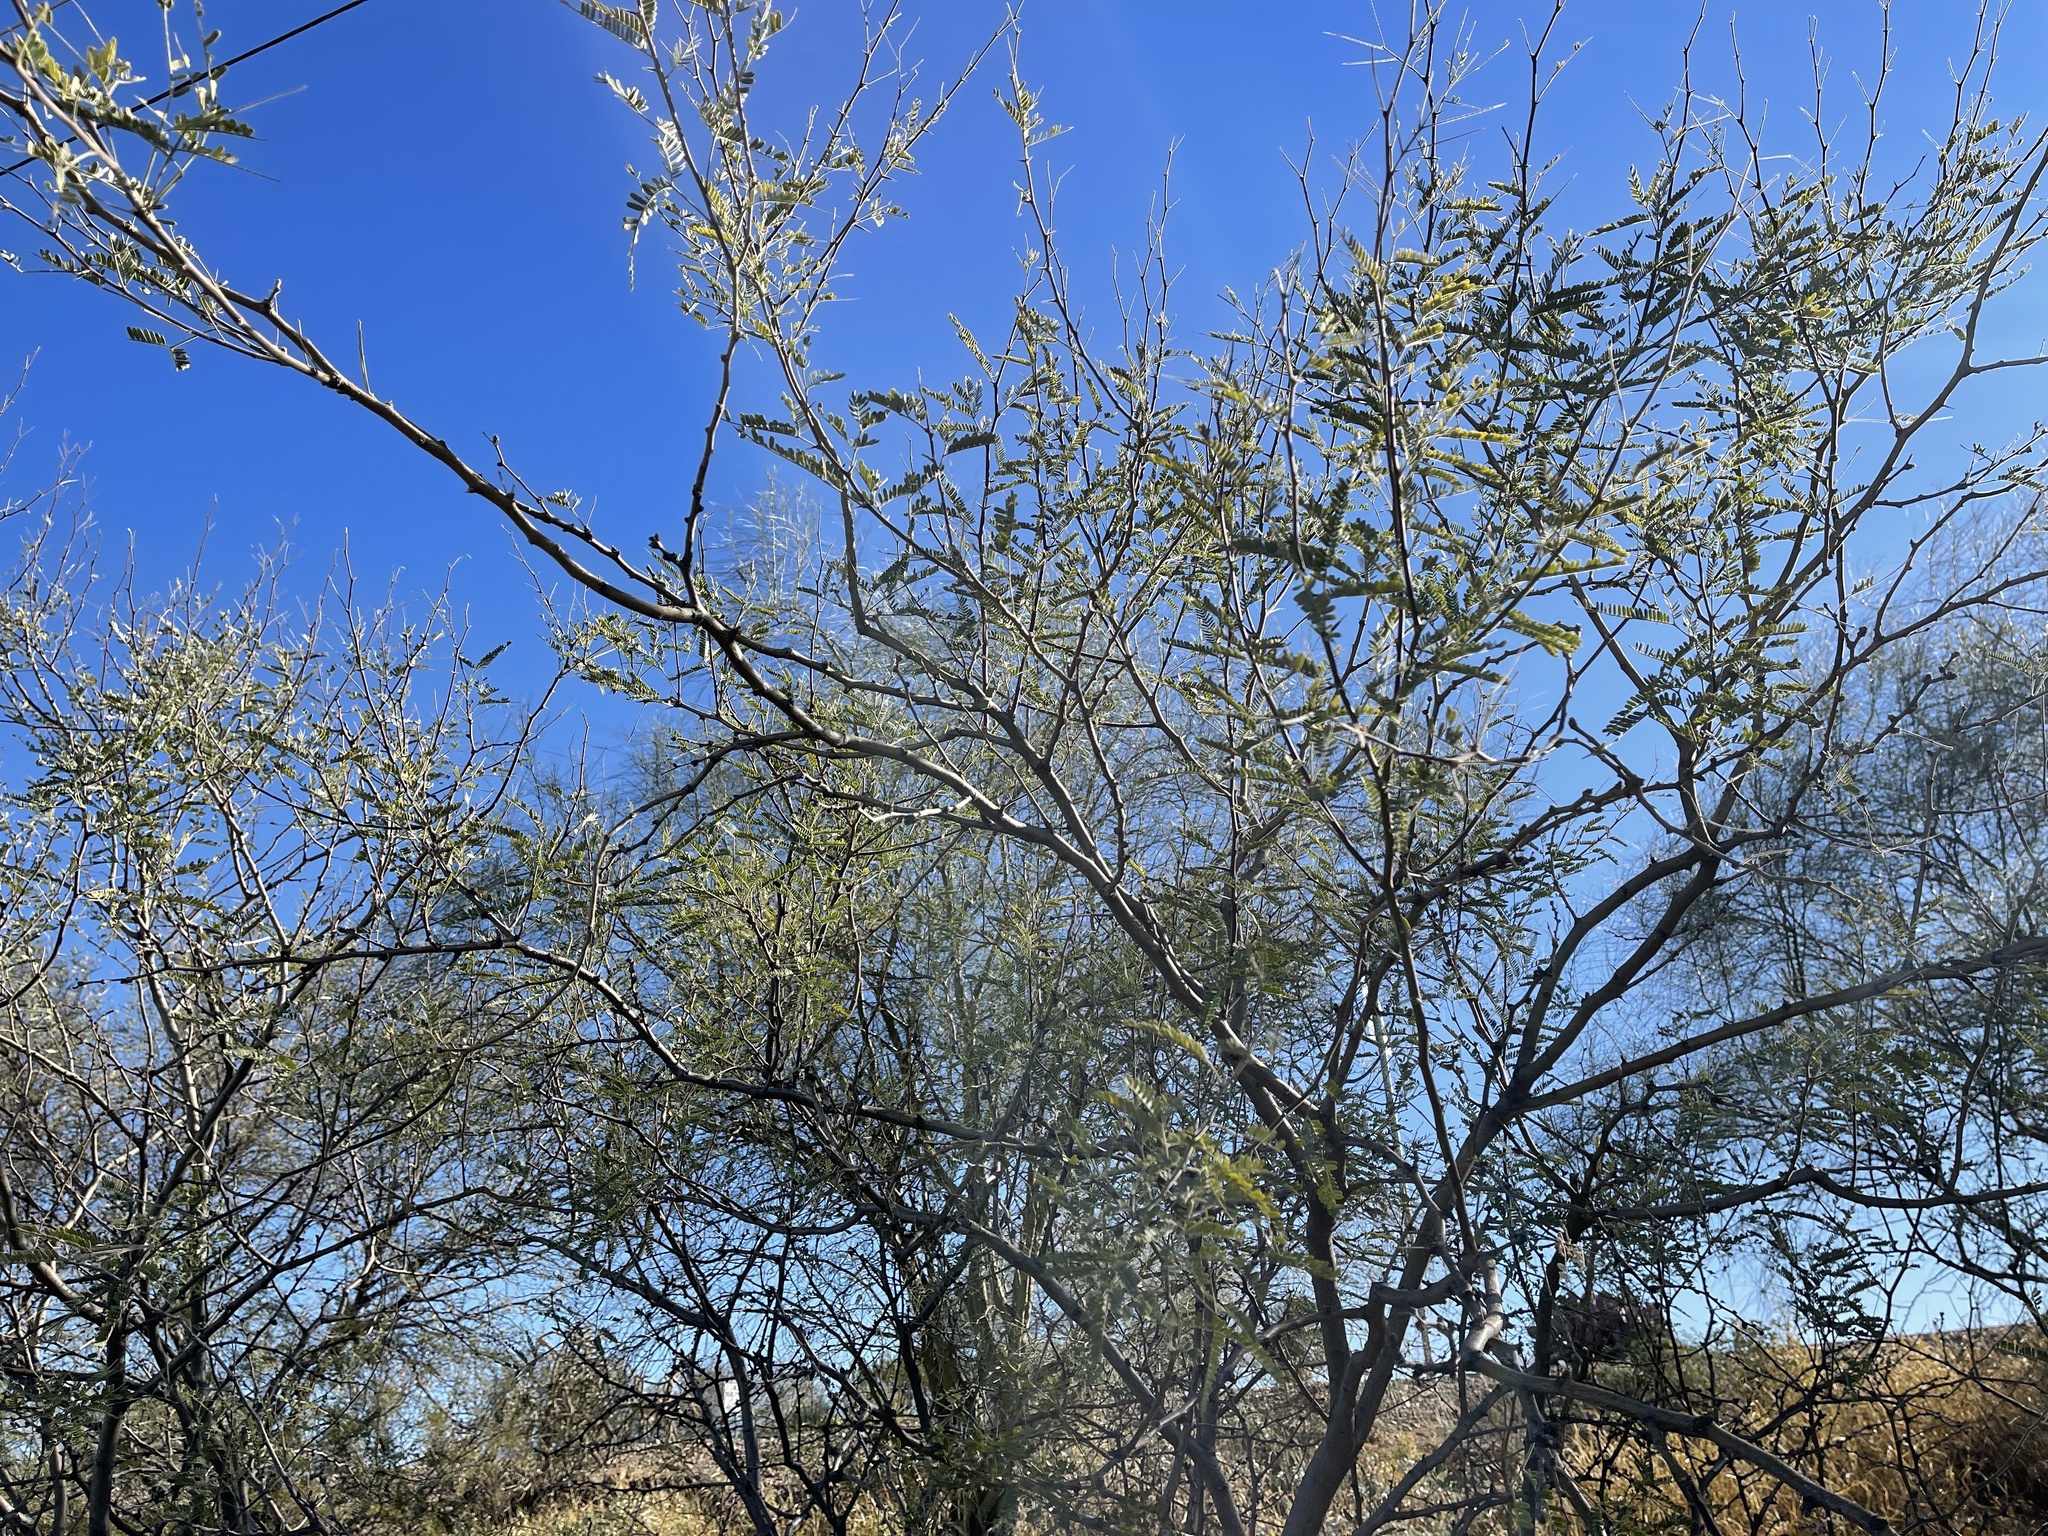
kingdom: Plantae
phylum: Tracheophyta
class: Magnoliopsida
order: Fabales
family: Fabaceae
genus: Prosopis
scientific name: Prosopis velutina
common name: Velvet mesquite
